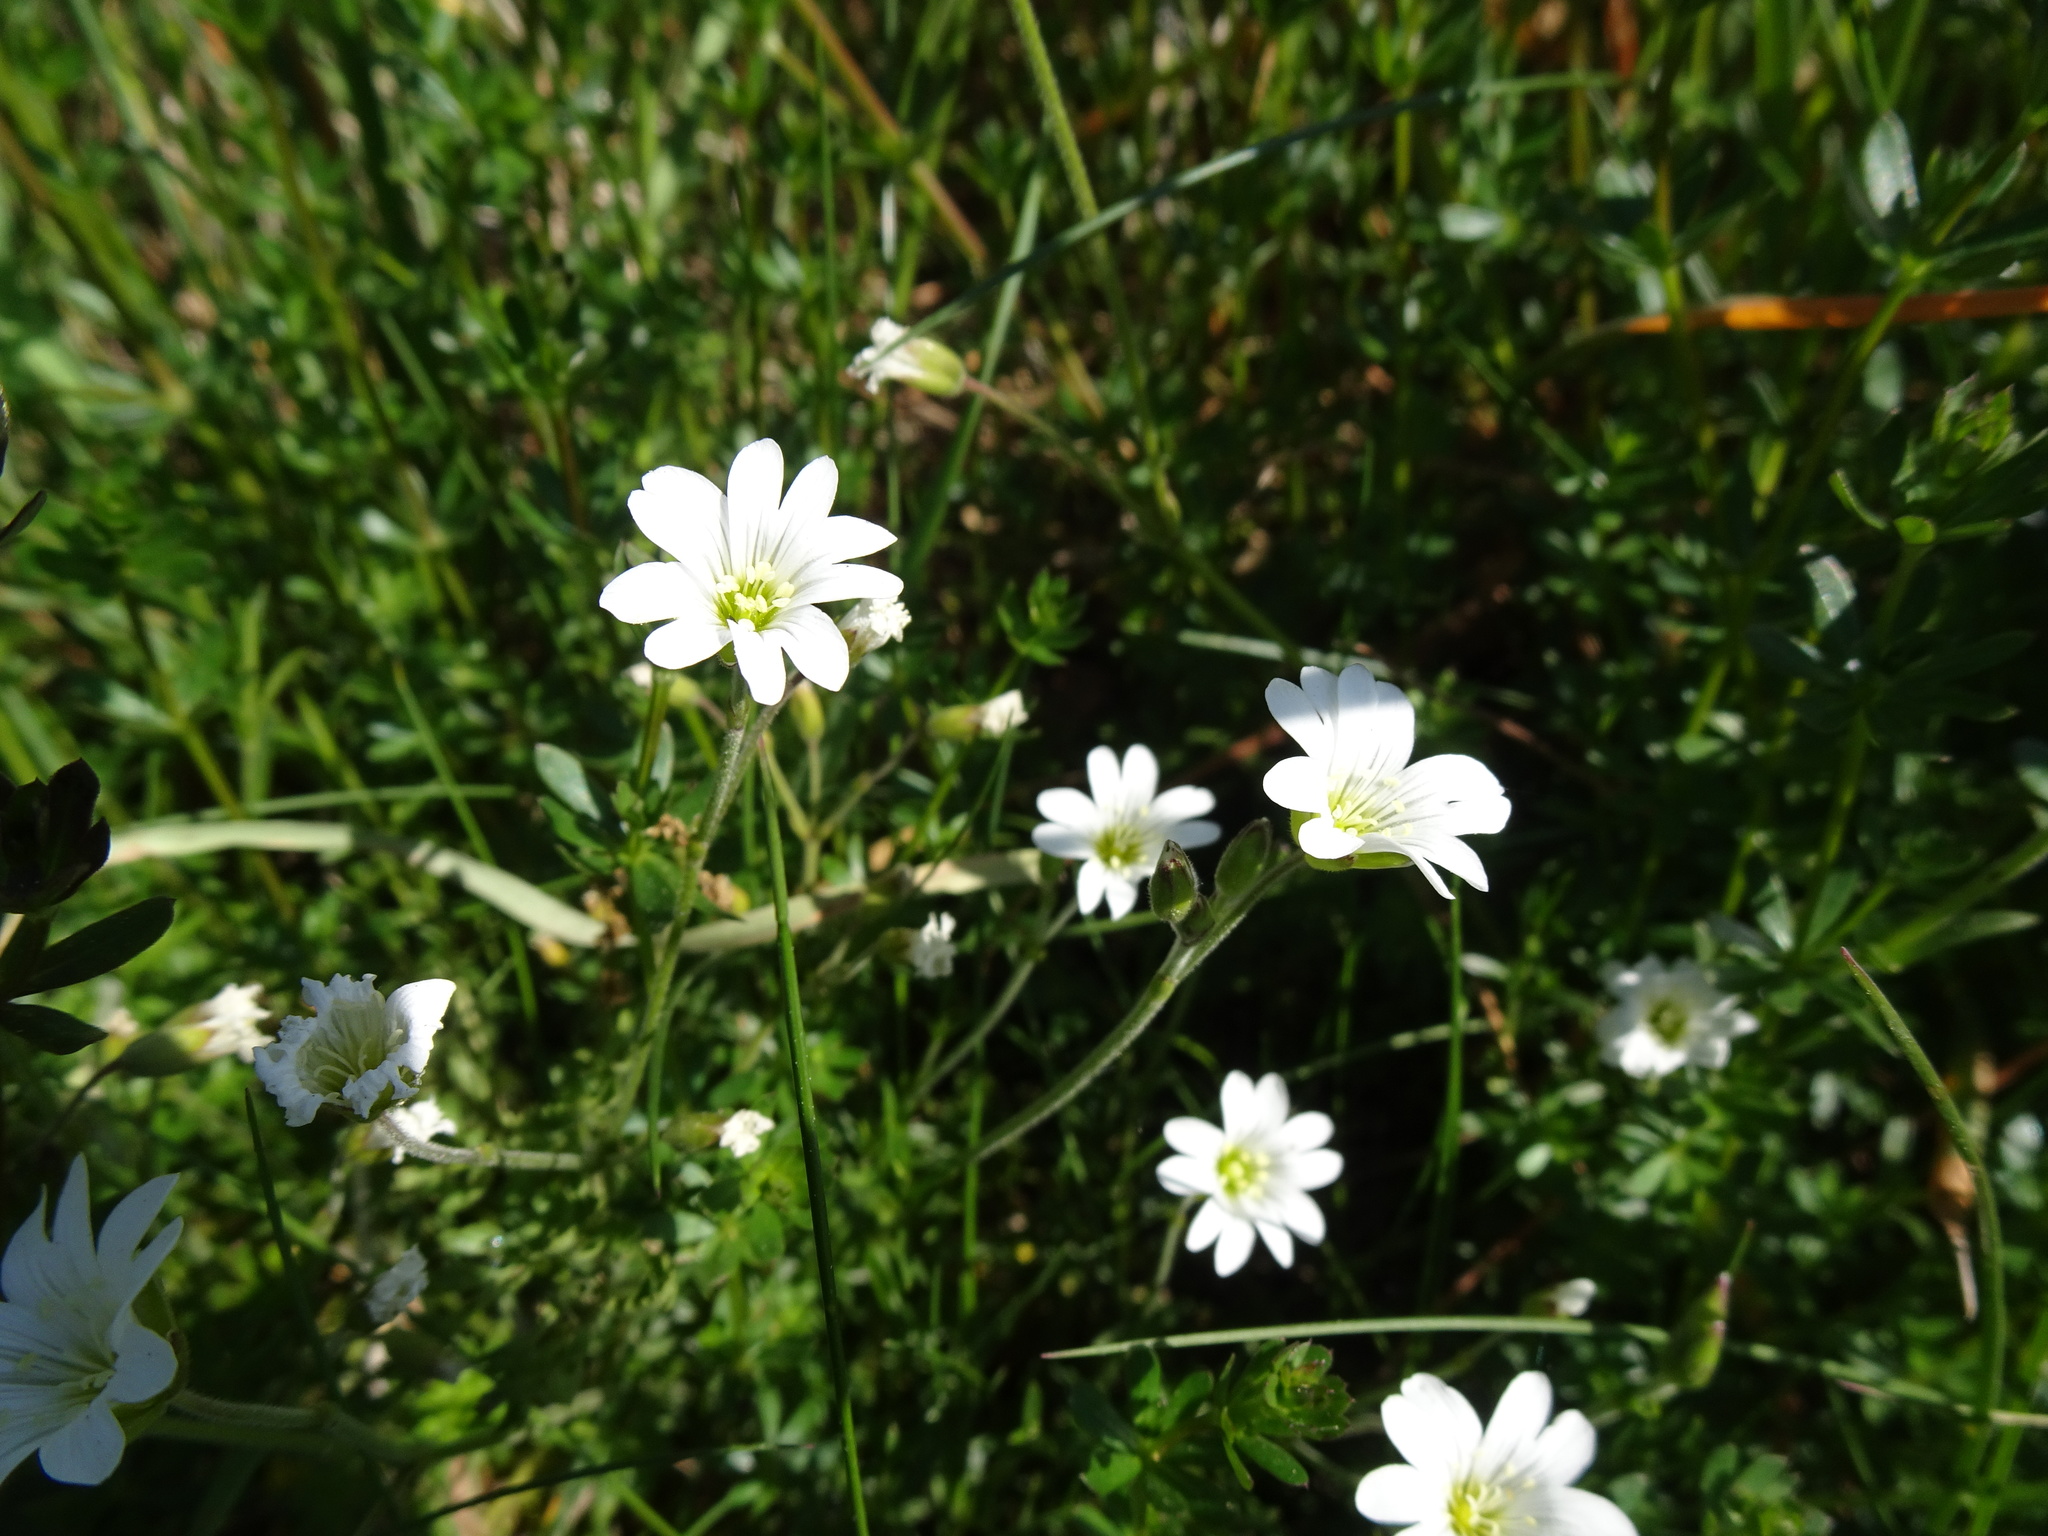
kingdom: Plantae
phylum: Tracheophyta
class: Magnoliopsida
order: Caryophyllales
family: Caryophyllaceae
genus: Cerastium
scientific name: Cerastium arvense
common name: Field mouse-ear
